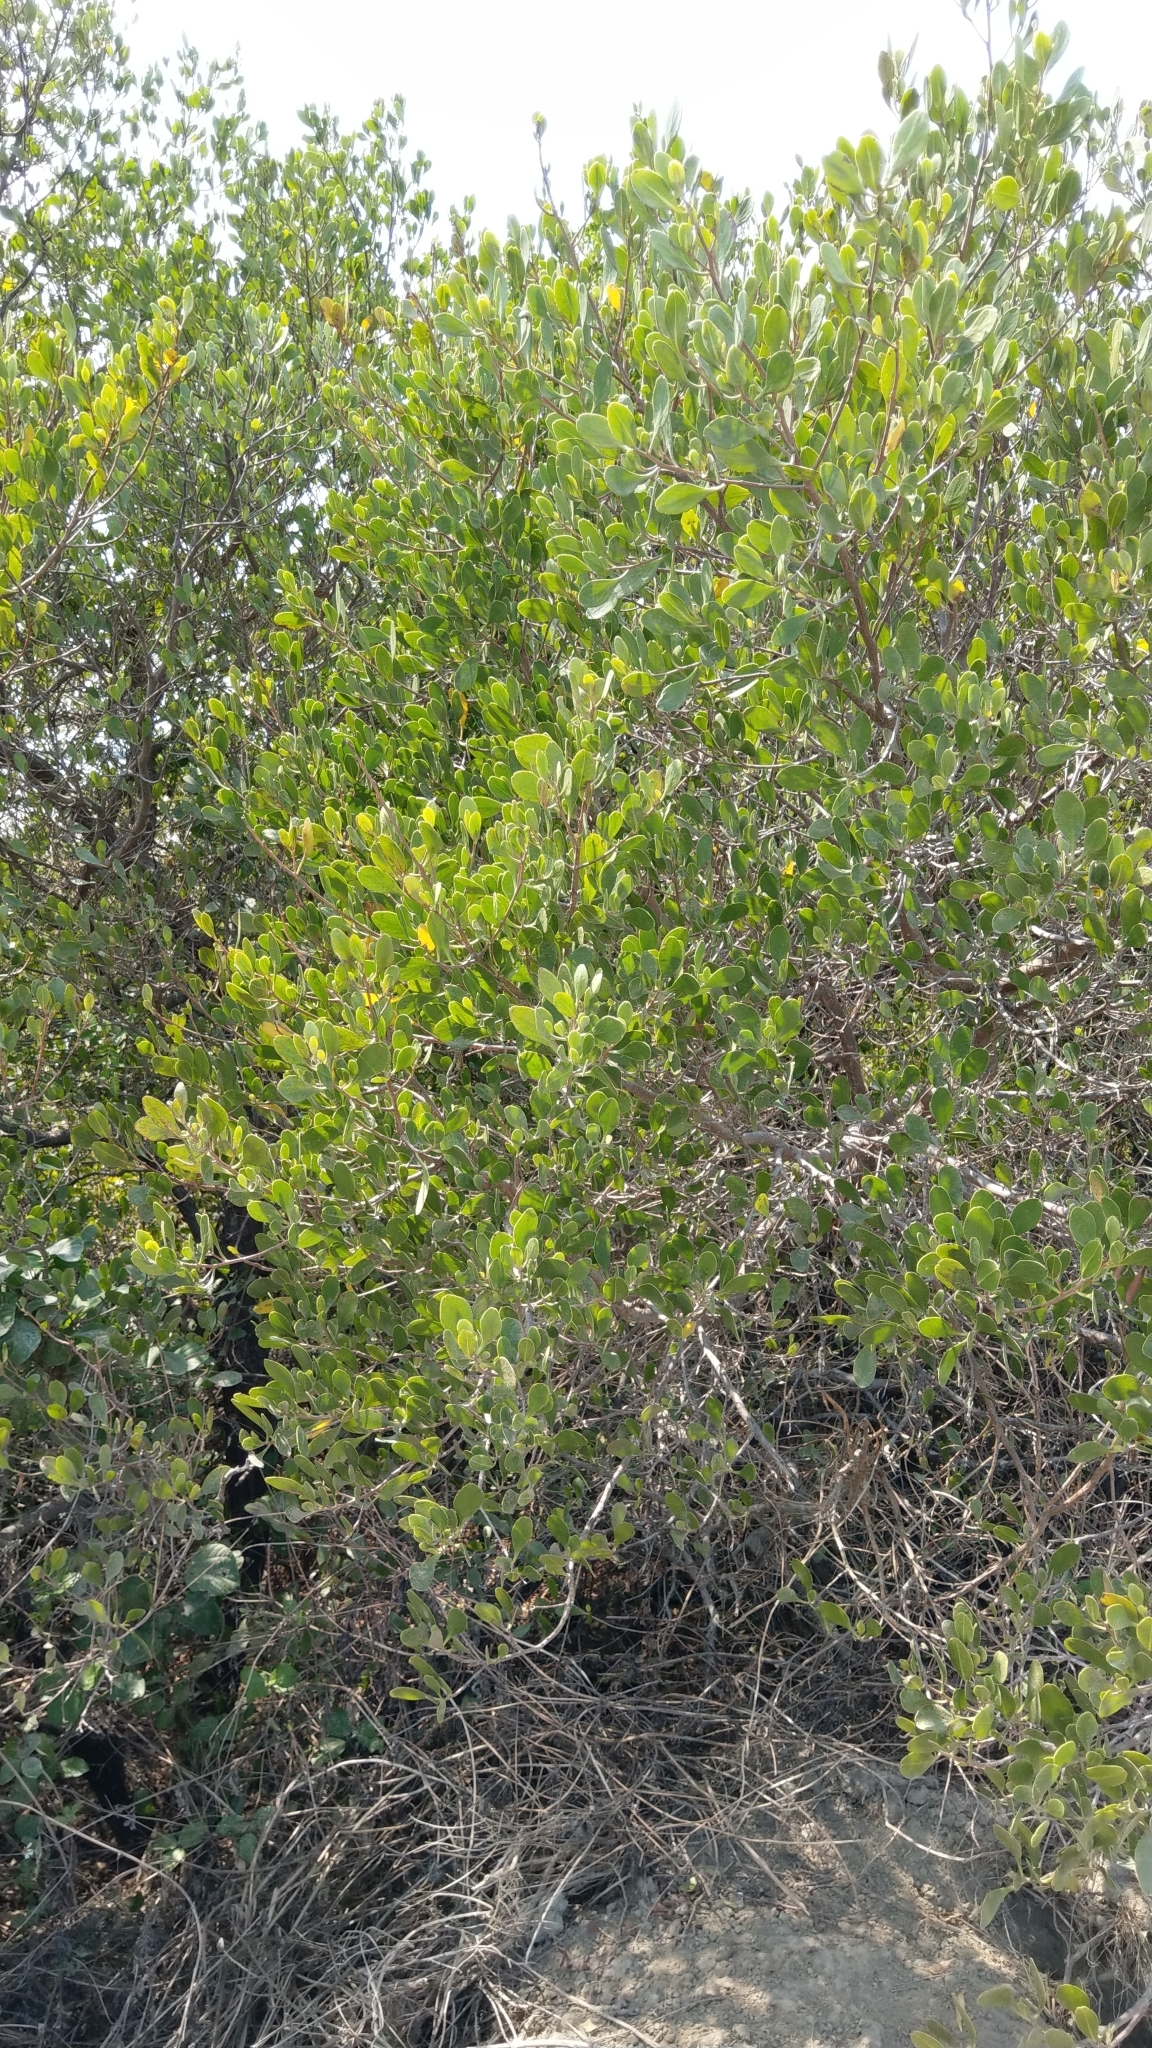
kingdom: Plantae
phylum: Tracheophyta
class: Magnoliopsida
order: Myrtales
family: Combretaceae
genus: Lumnitzera
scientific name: Lumnitzera racemosa
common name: White-flowered black mangrove
